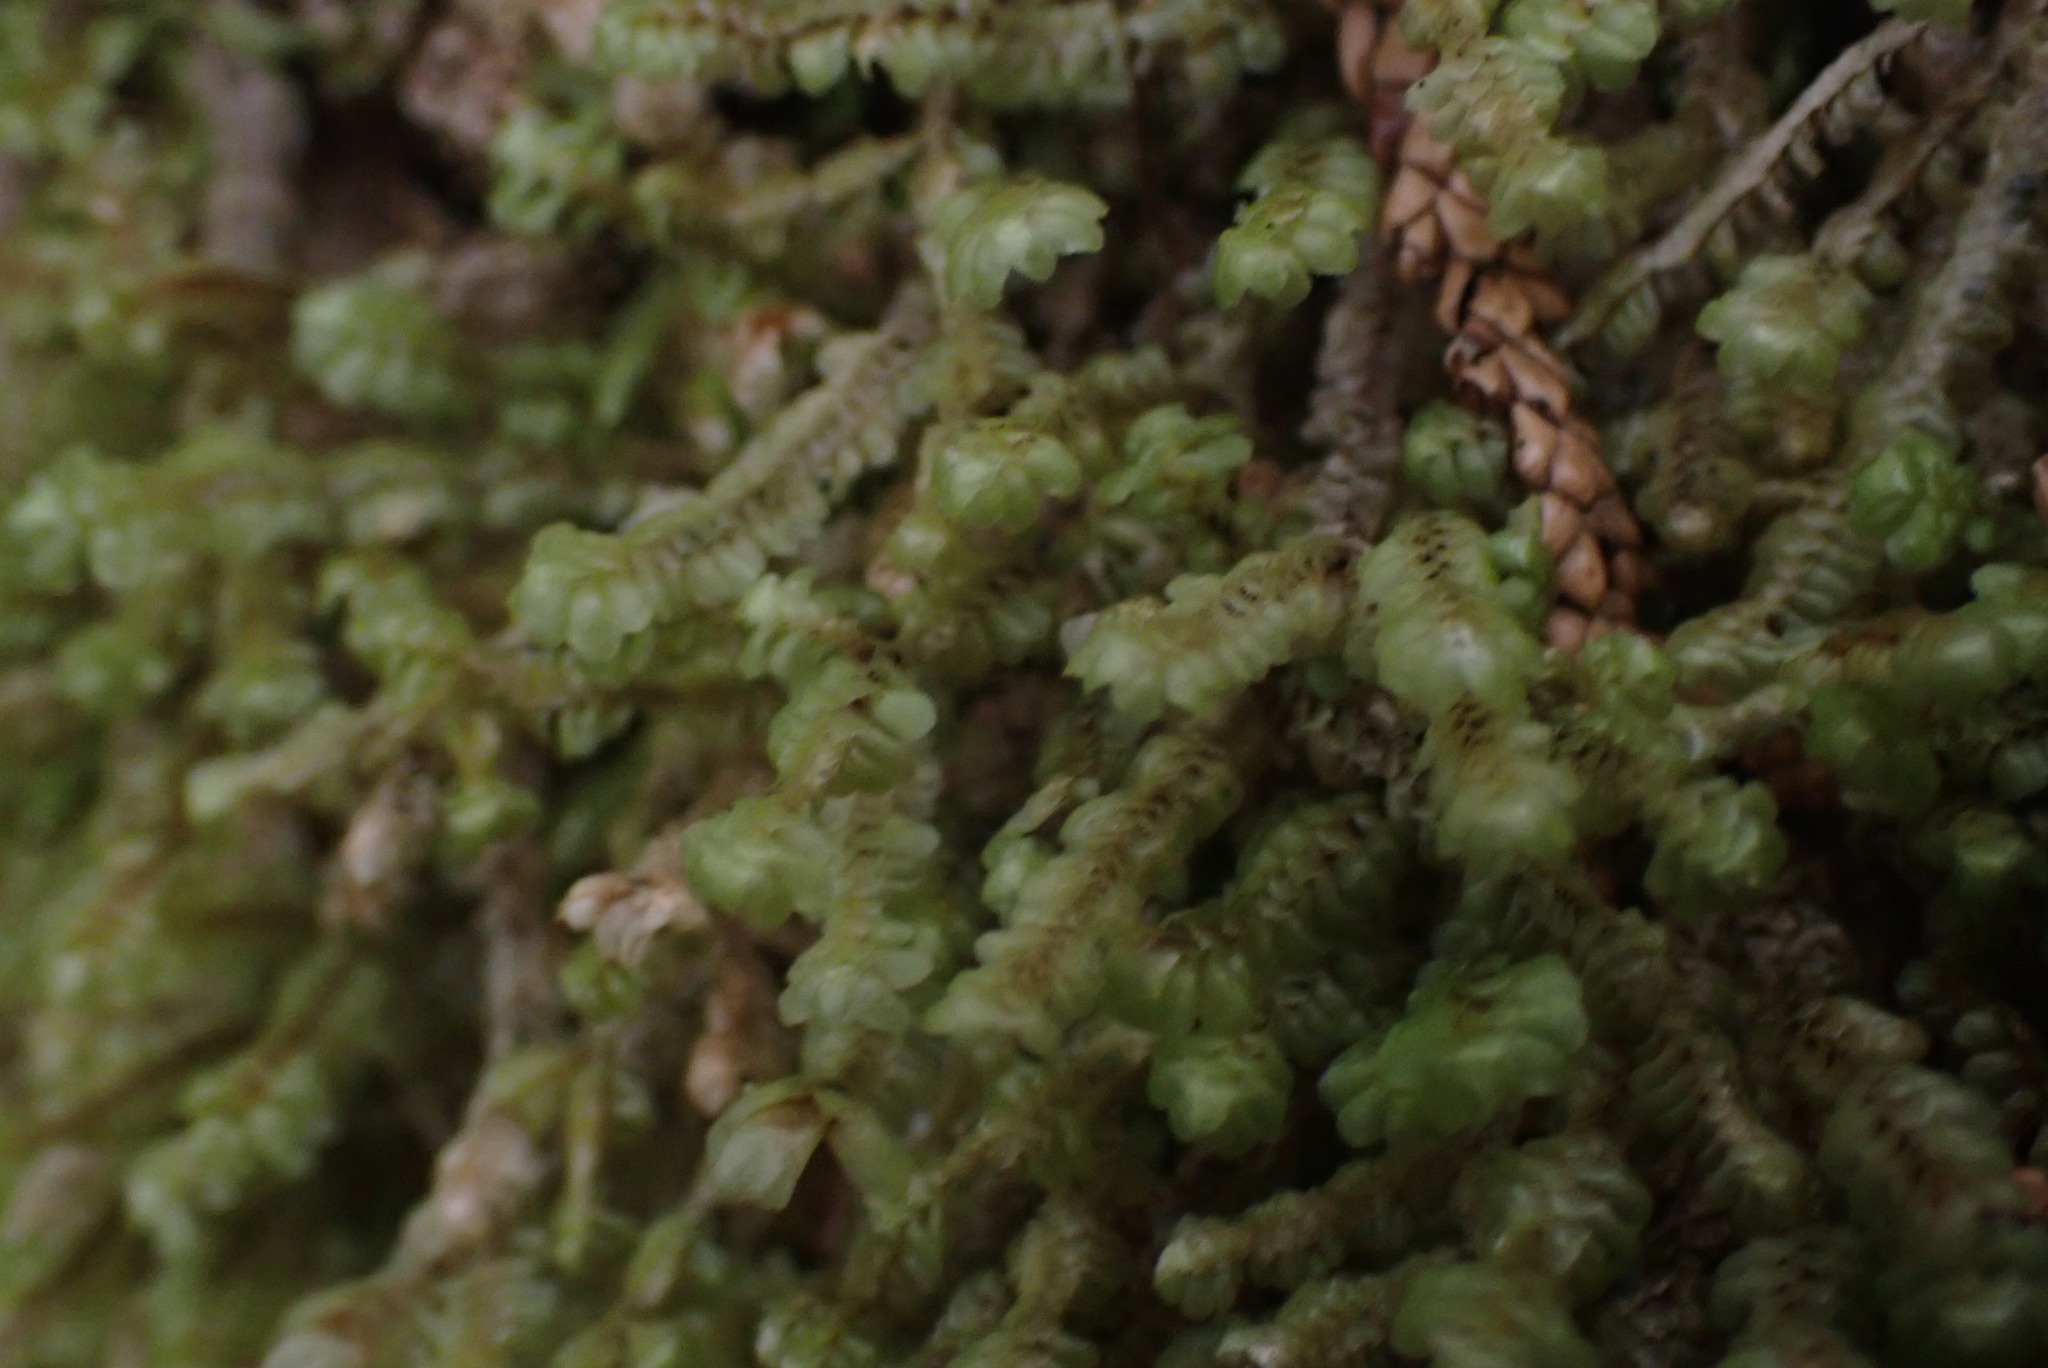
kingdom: Plantae
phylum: Marchantiophyta
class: Jungermanniopsida
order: Jungermanniales
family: Scapaniaceae
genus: Scapania
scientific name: Scapania bolanderi
